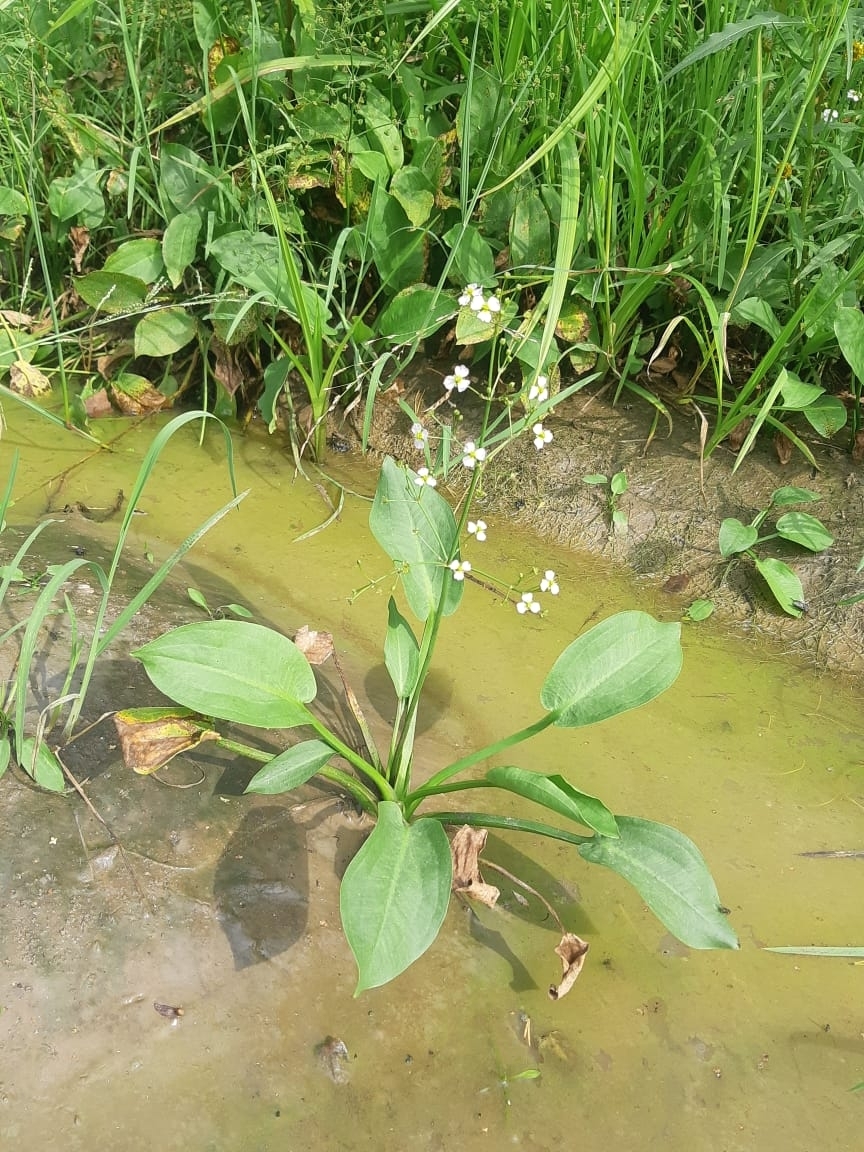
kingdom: Plantae
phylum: Tracheophyta
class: Liliopsida
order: Alismatales
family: Alismataceae
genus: Alisma
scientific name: Alisma plantago-aquatica
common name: Water-plantain
